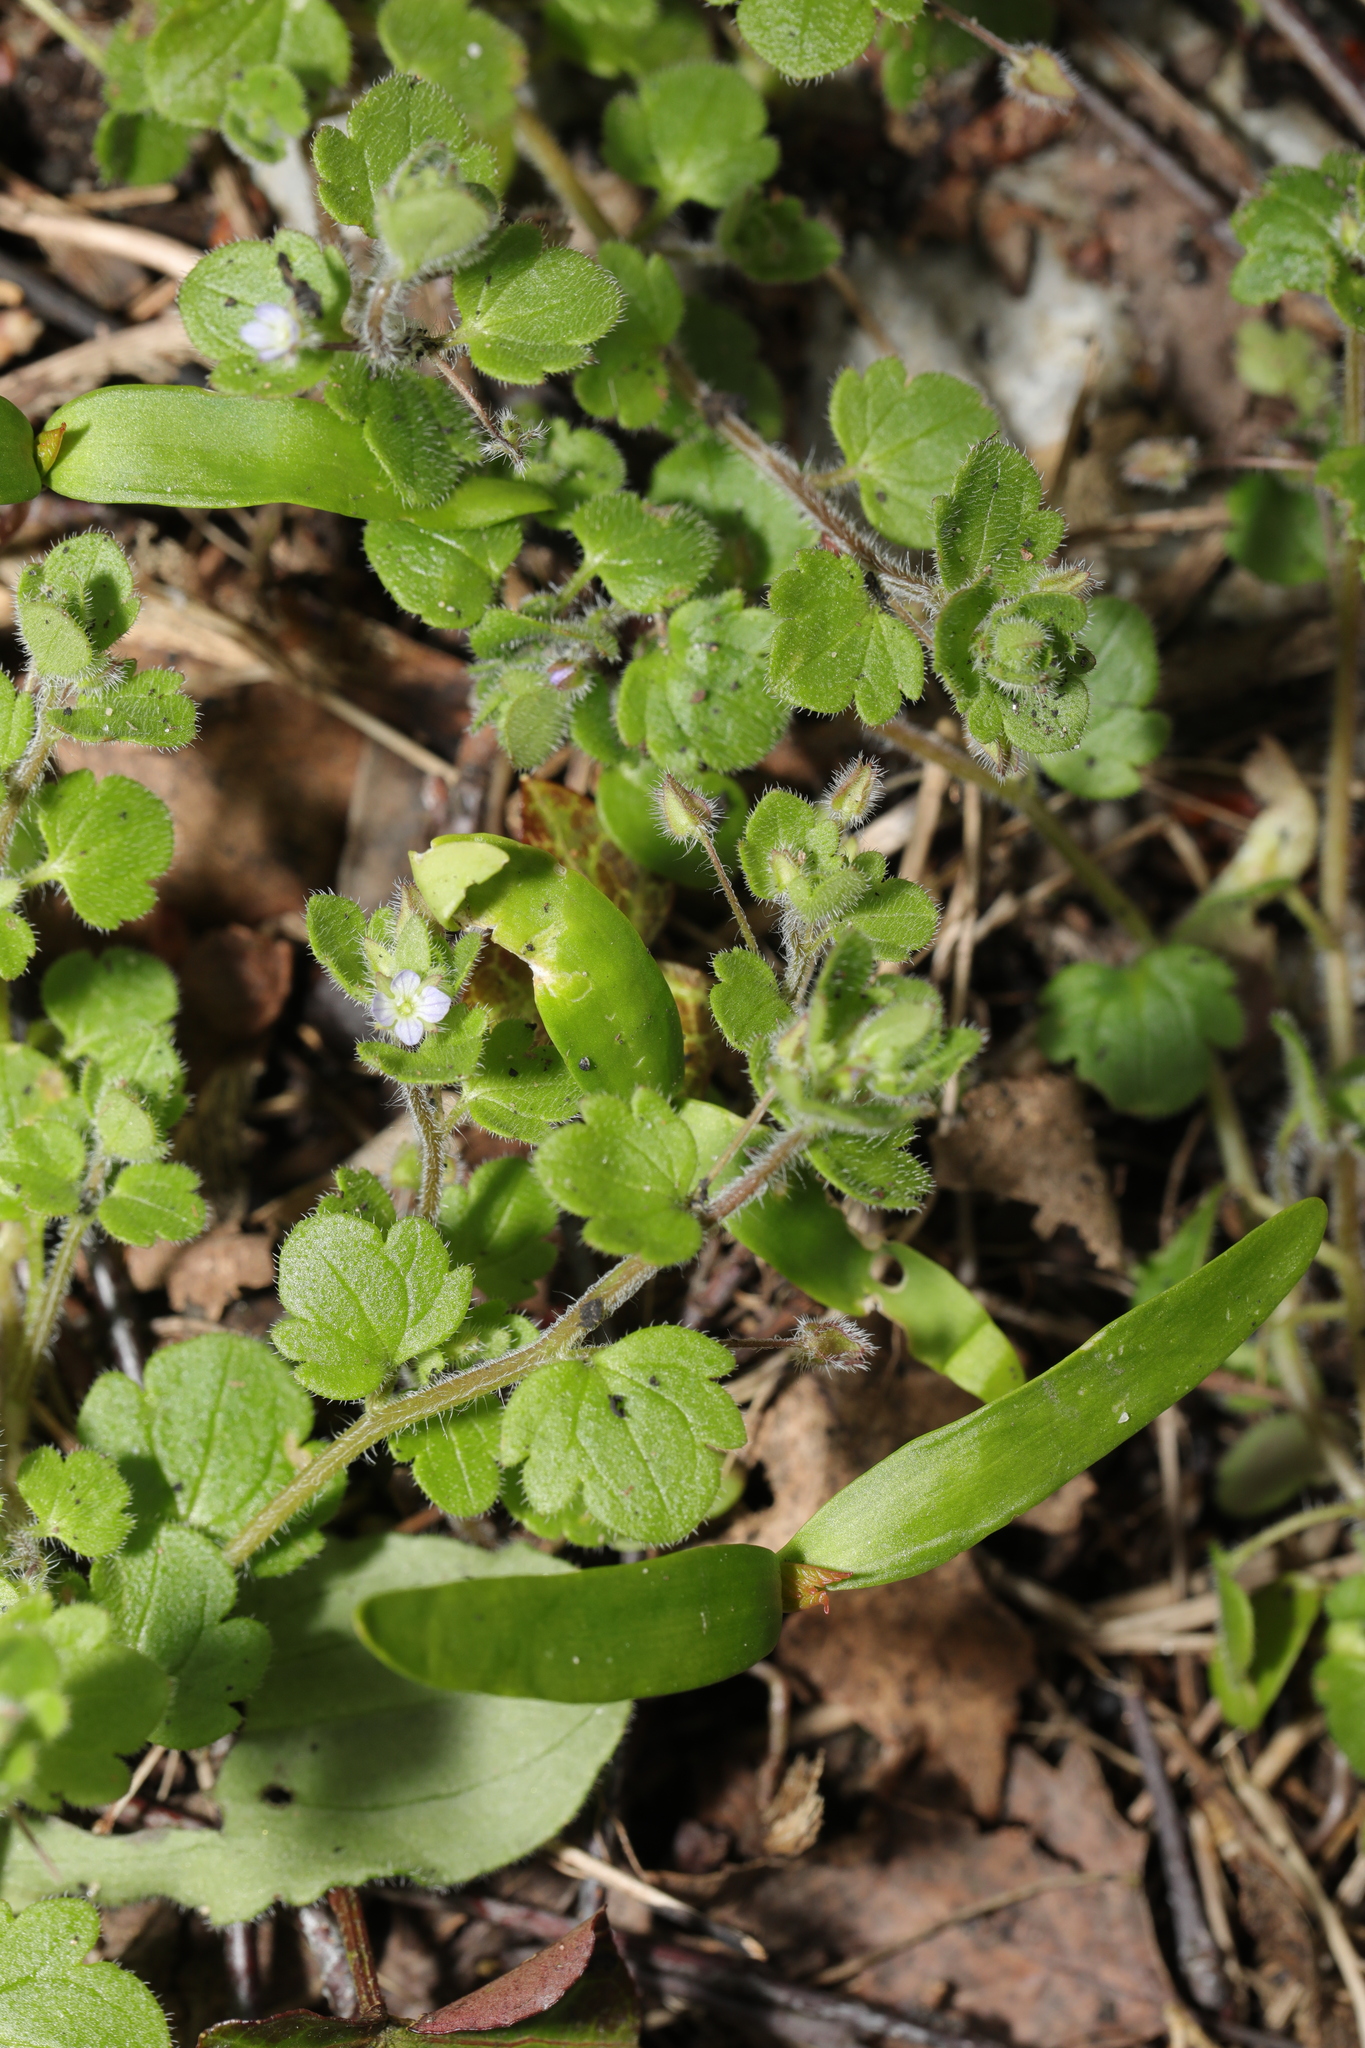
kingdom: Plantae
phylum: Tracheophyta
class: Magnoliopsida
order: Lamiales
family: Plantaginaceae
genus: Veronica
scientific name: Veronica sublobata
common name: False ivy-leaved speedwell
